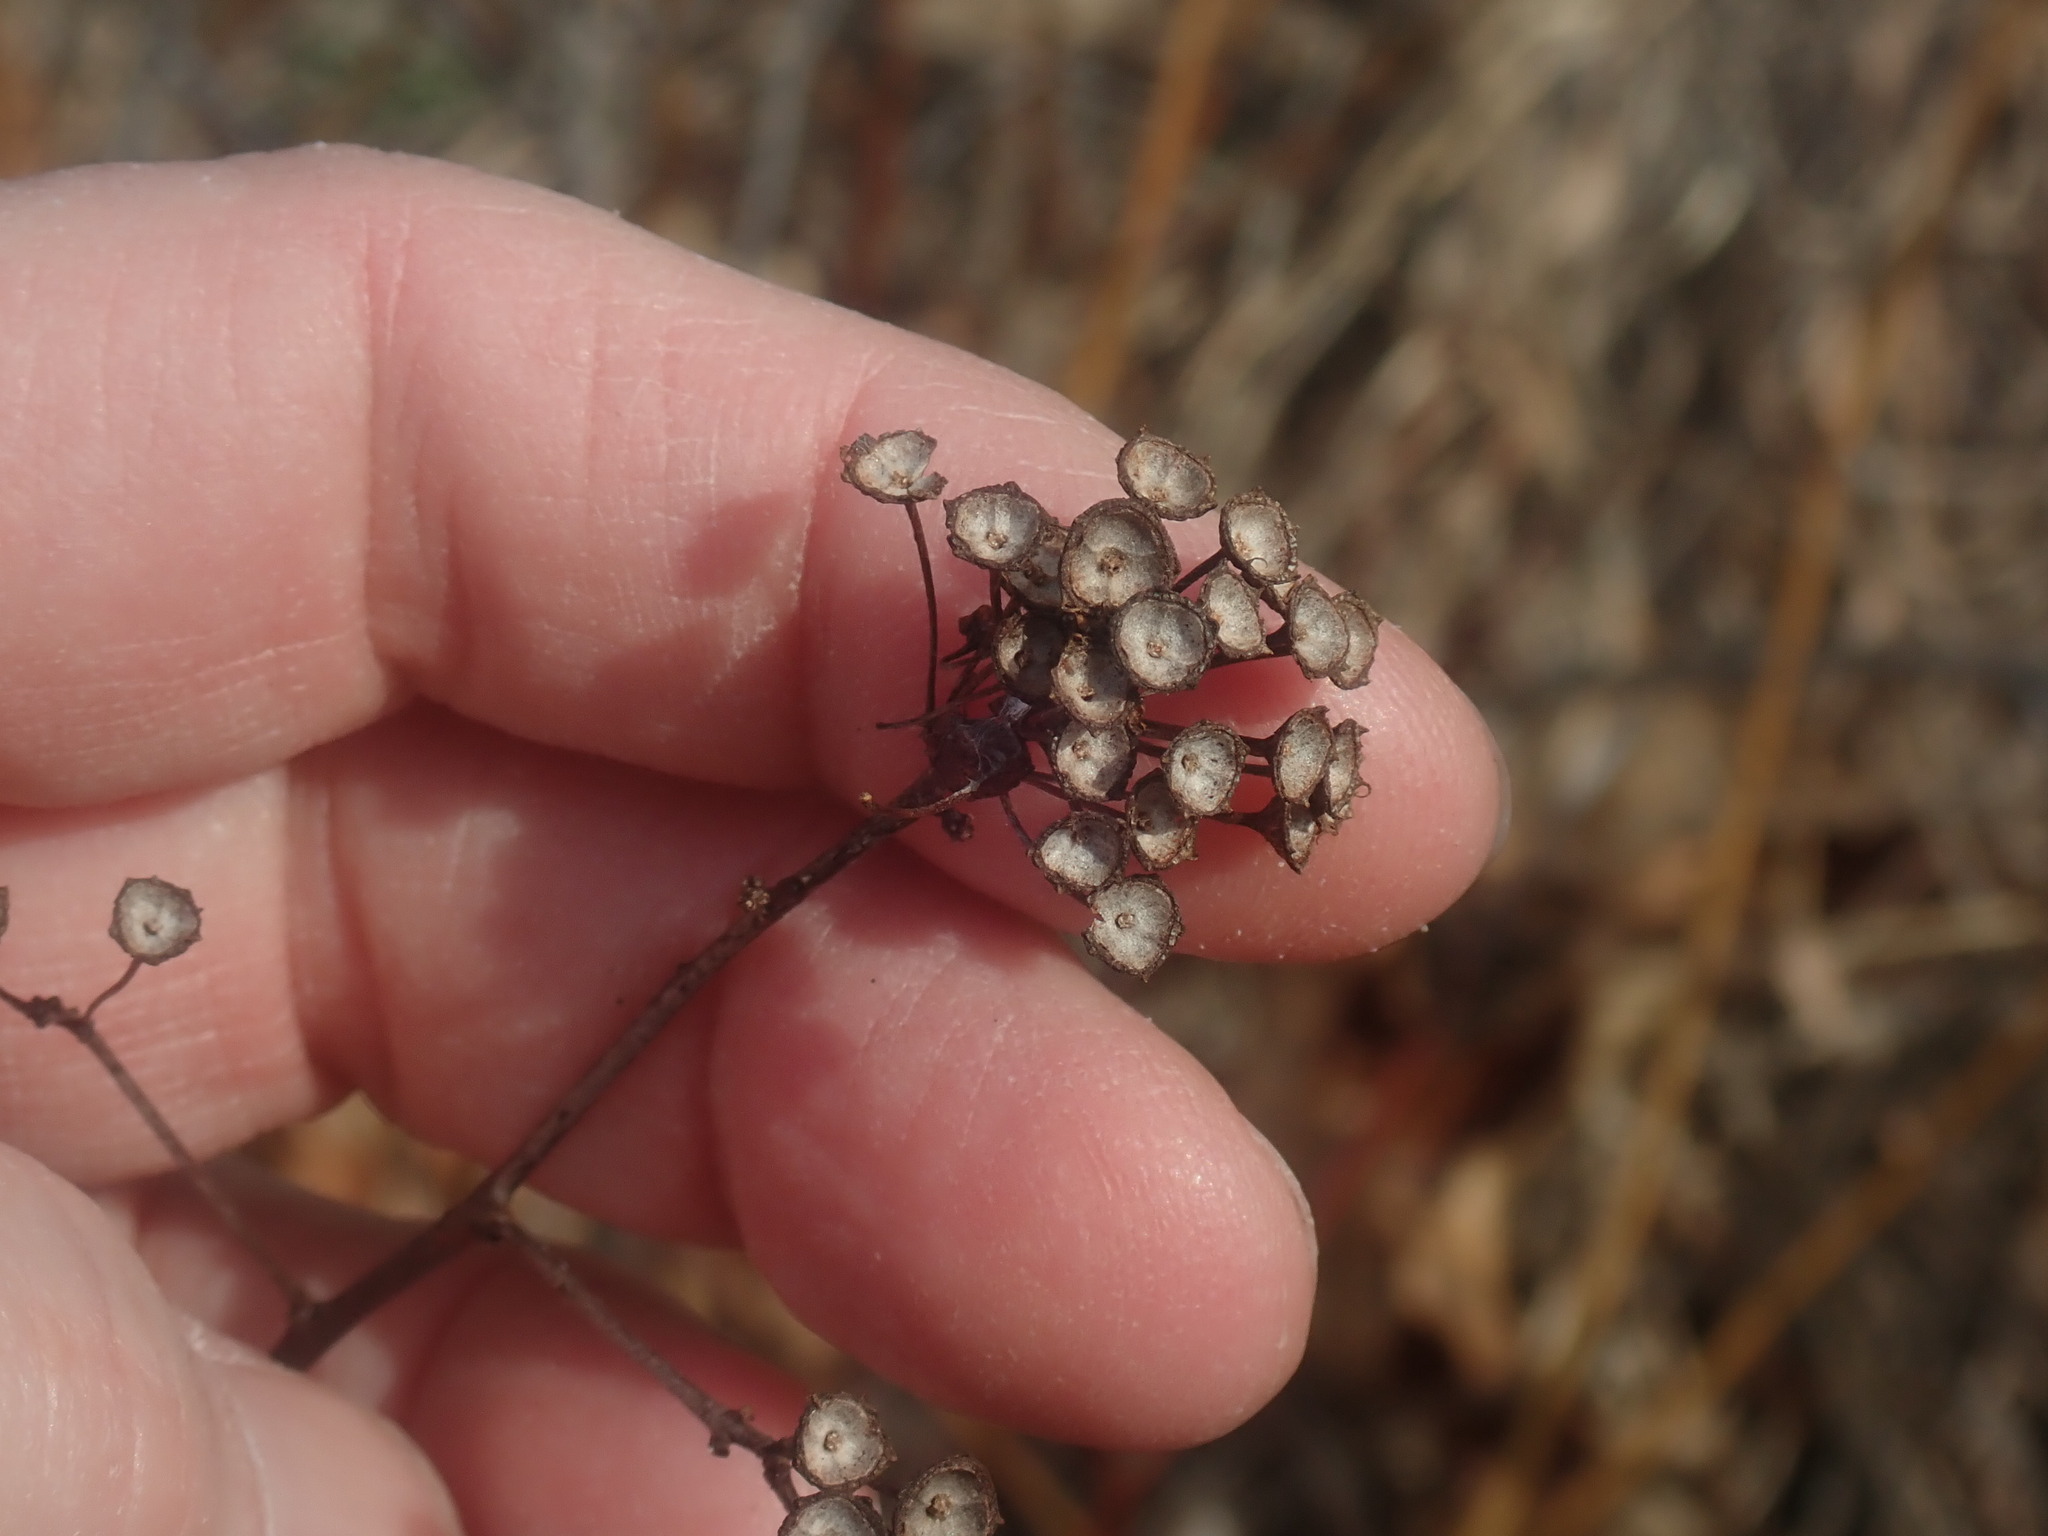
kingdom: Plantae
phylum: Tracheophyta
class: Magnoliopsida
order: Rosales
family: Rhamnaceae
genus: Ceanothus
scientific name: Ceanothus americanus
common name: Redroot
